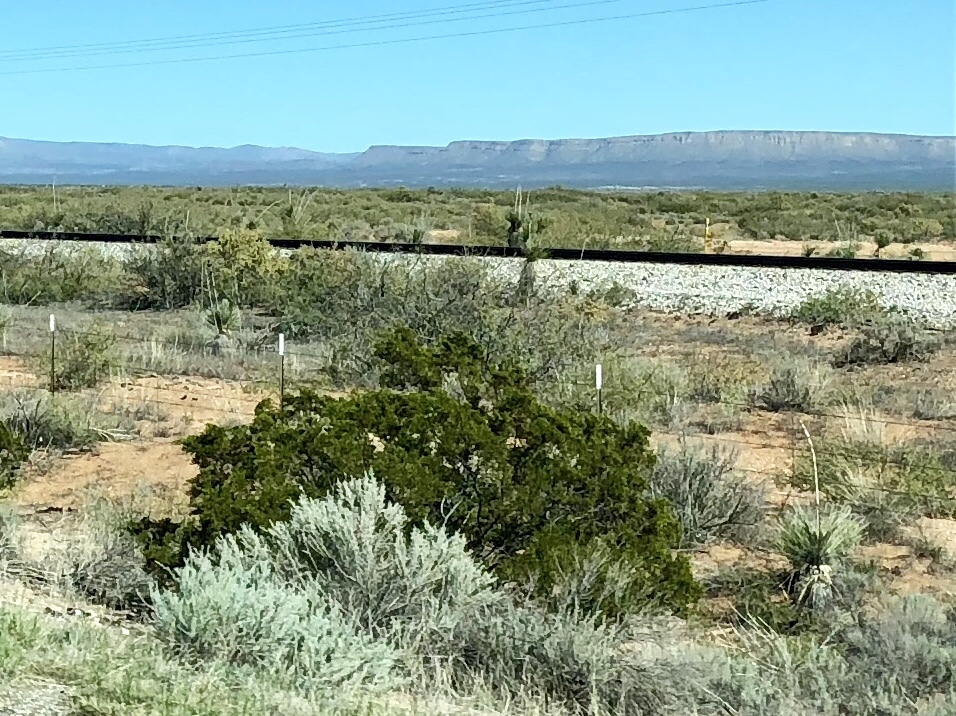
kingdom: Plantae
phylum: Tracheophyta
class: Magnoliopsida
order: Zygophyllales
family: Zygophyllaceae
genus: Larrea
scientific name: Larrea tridentata
